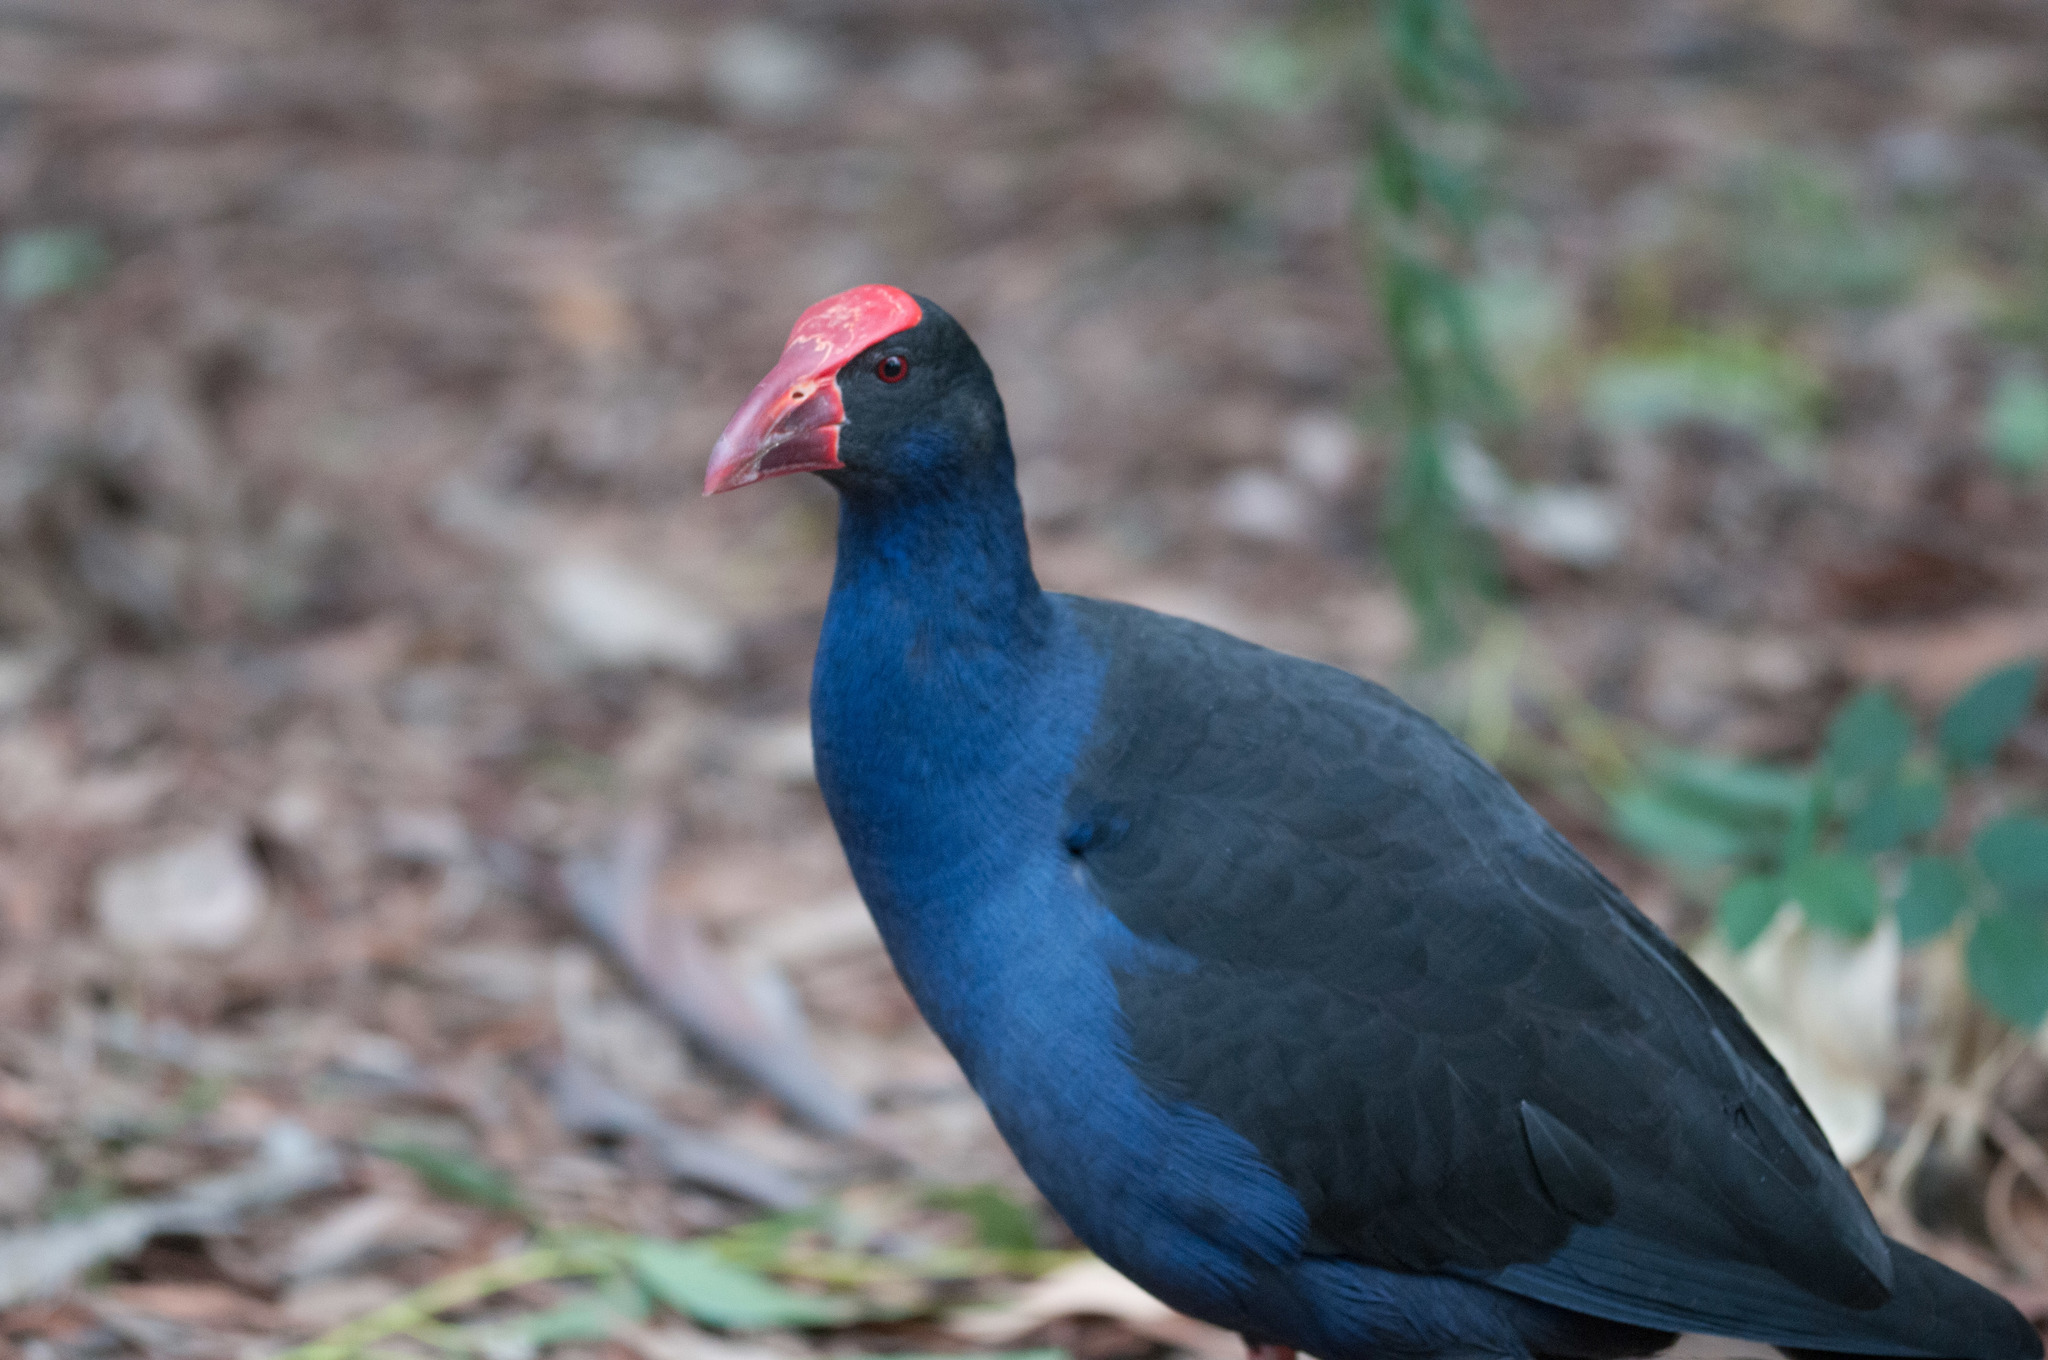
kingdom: Animalia
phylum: Chordata
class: Aves
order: Gruiformes
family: Rallidae
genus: Porphyrio
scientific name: Porphyrio melanotus
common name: Australasian swamphen
